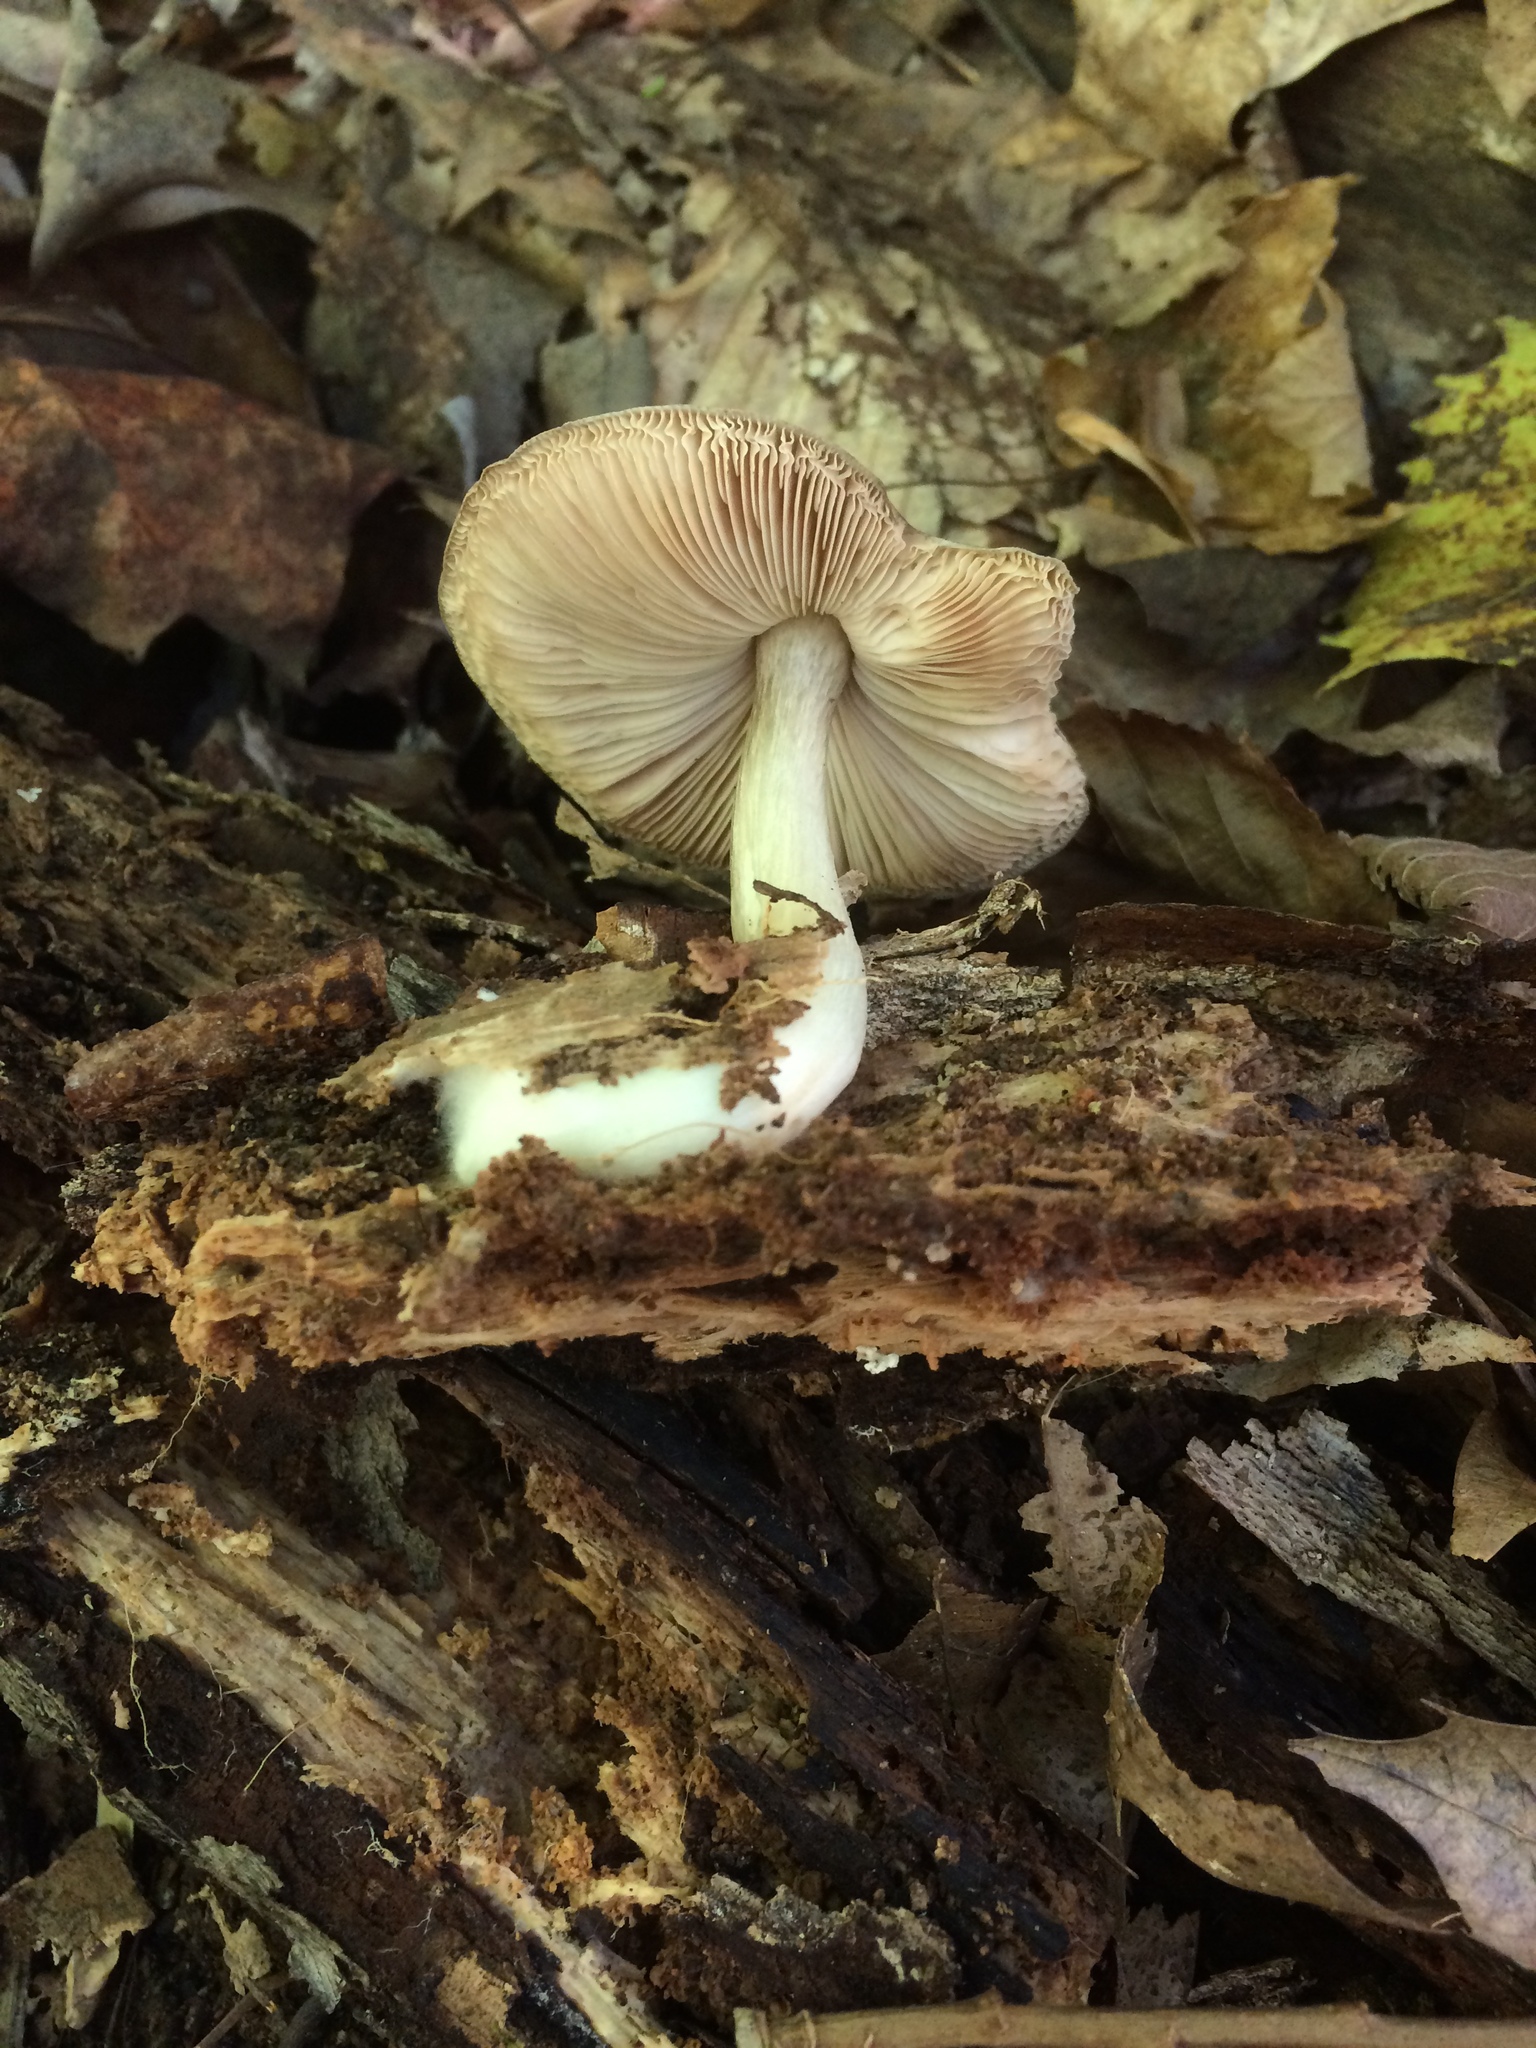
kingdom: Fungi
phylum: Basidiomycota
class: Agaricomycetes
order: Agaricales
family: Pluteaceae
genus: Pluteus
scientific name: Pluteus hongoi
